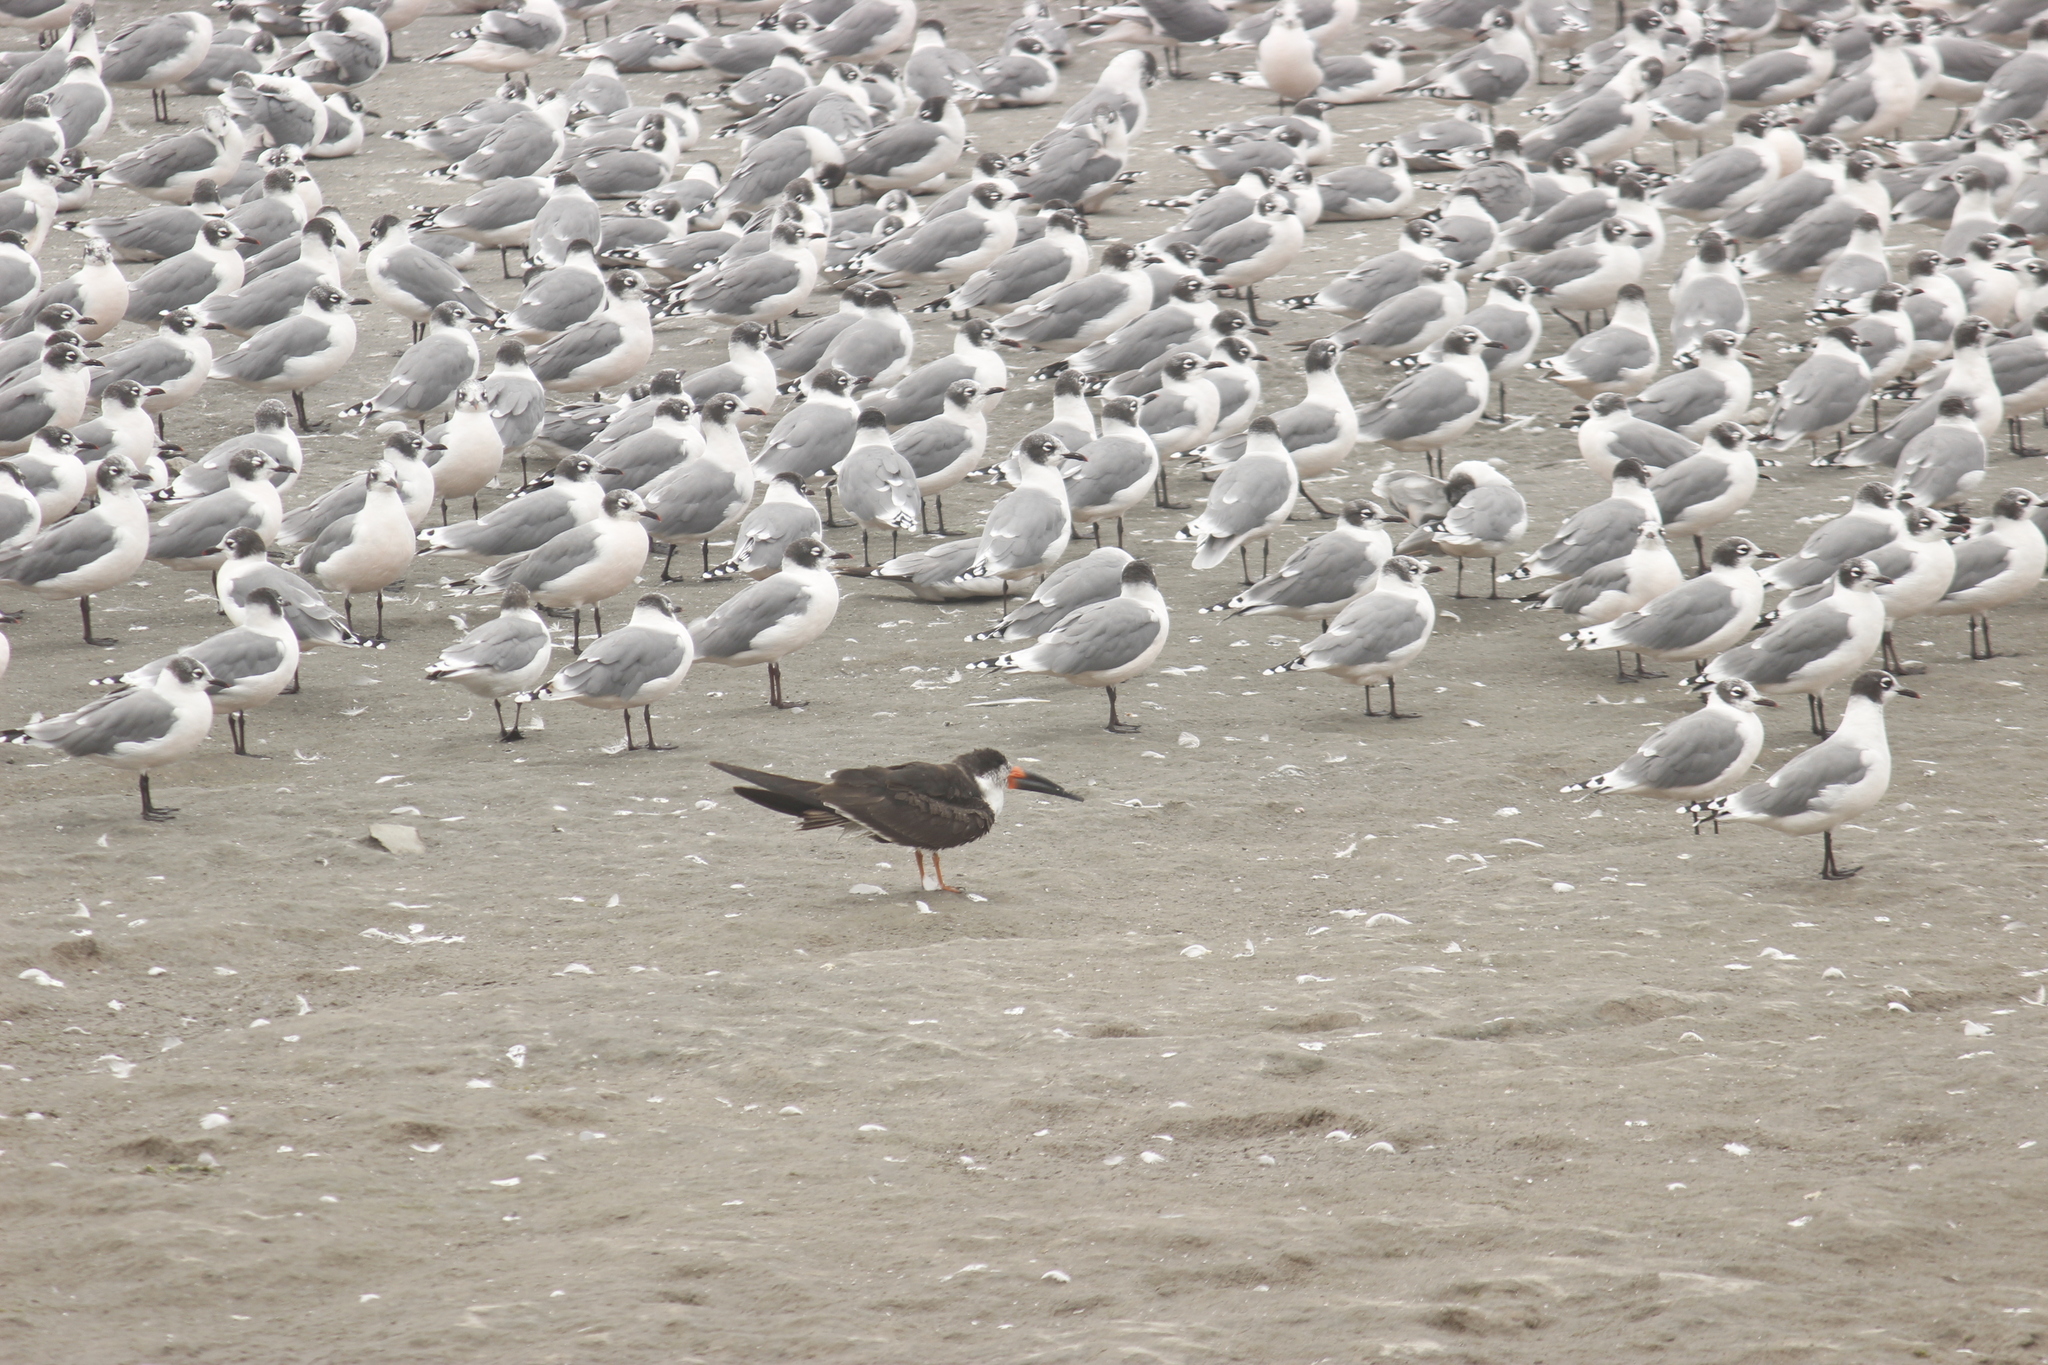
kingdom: Animalia
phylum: Chordata
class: Aves
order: Charadriiformes
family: Laridae
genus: Rynchops
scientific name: Rynchops niger
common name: Black skimmer
